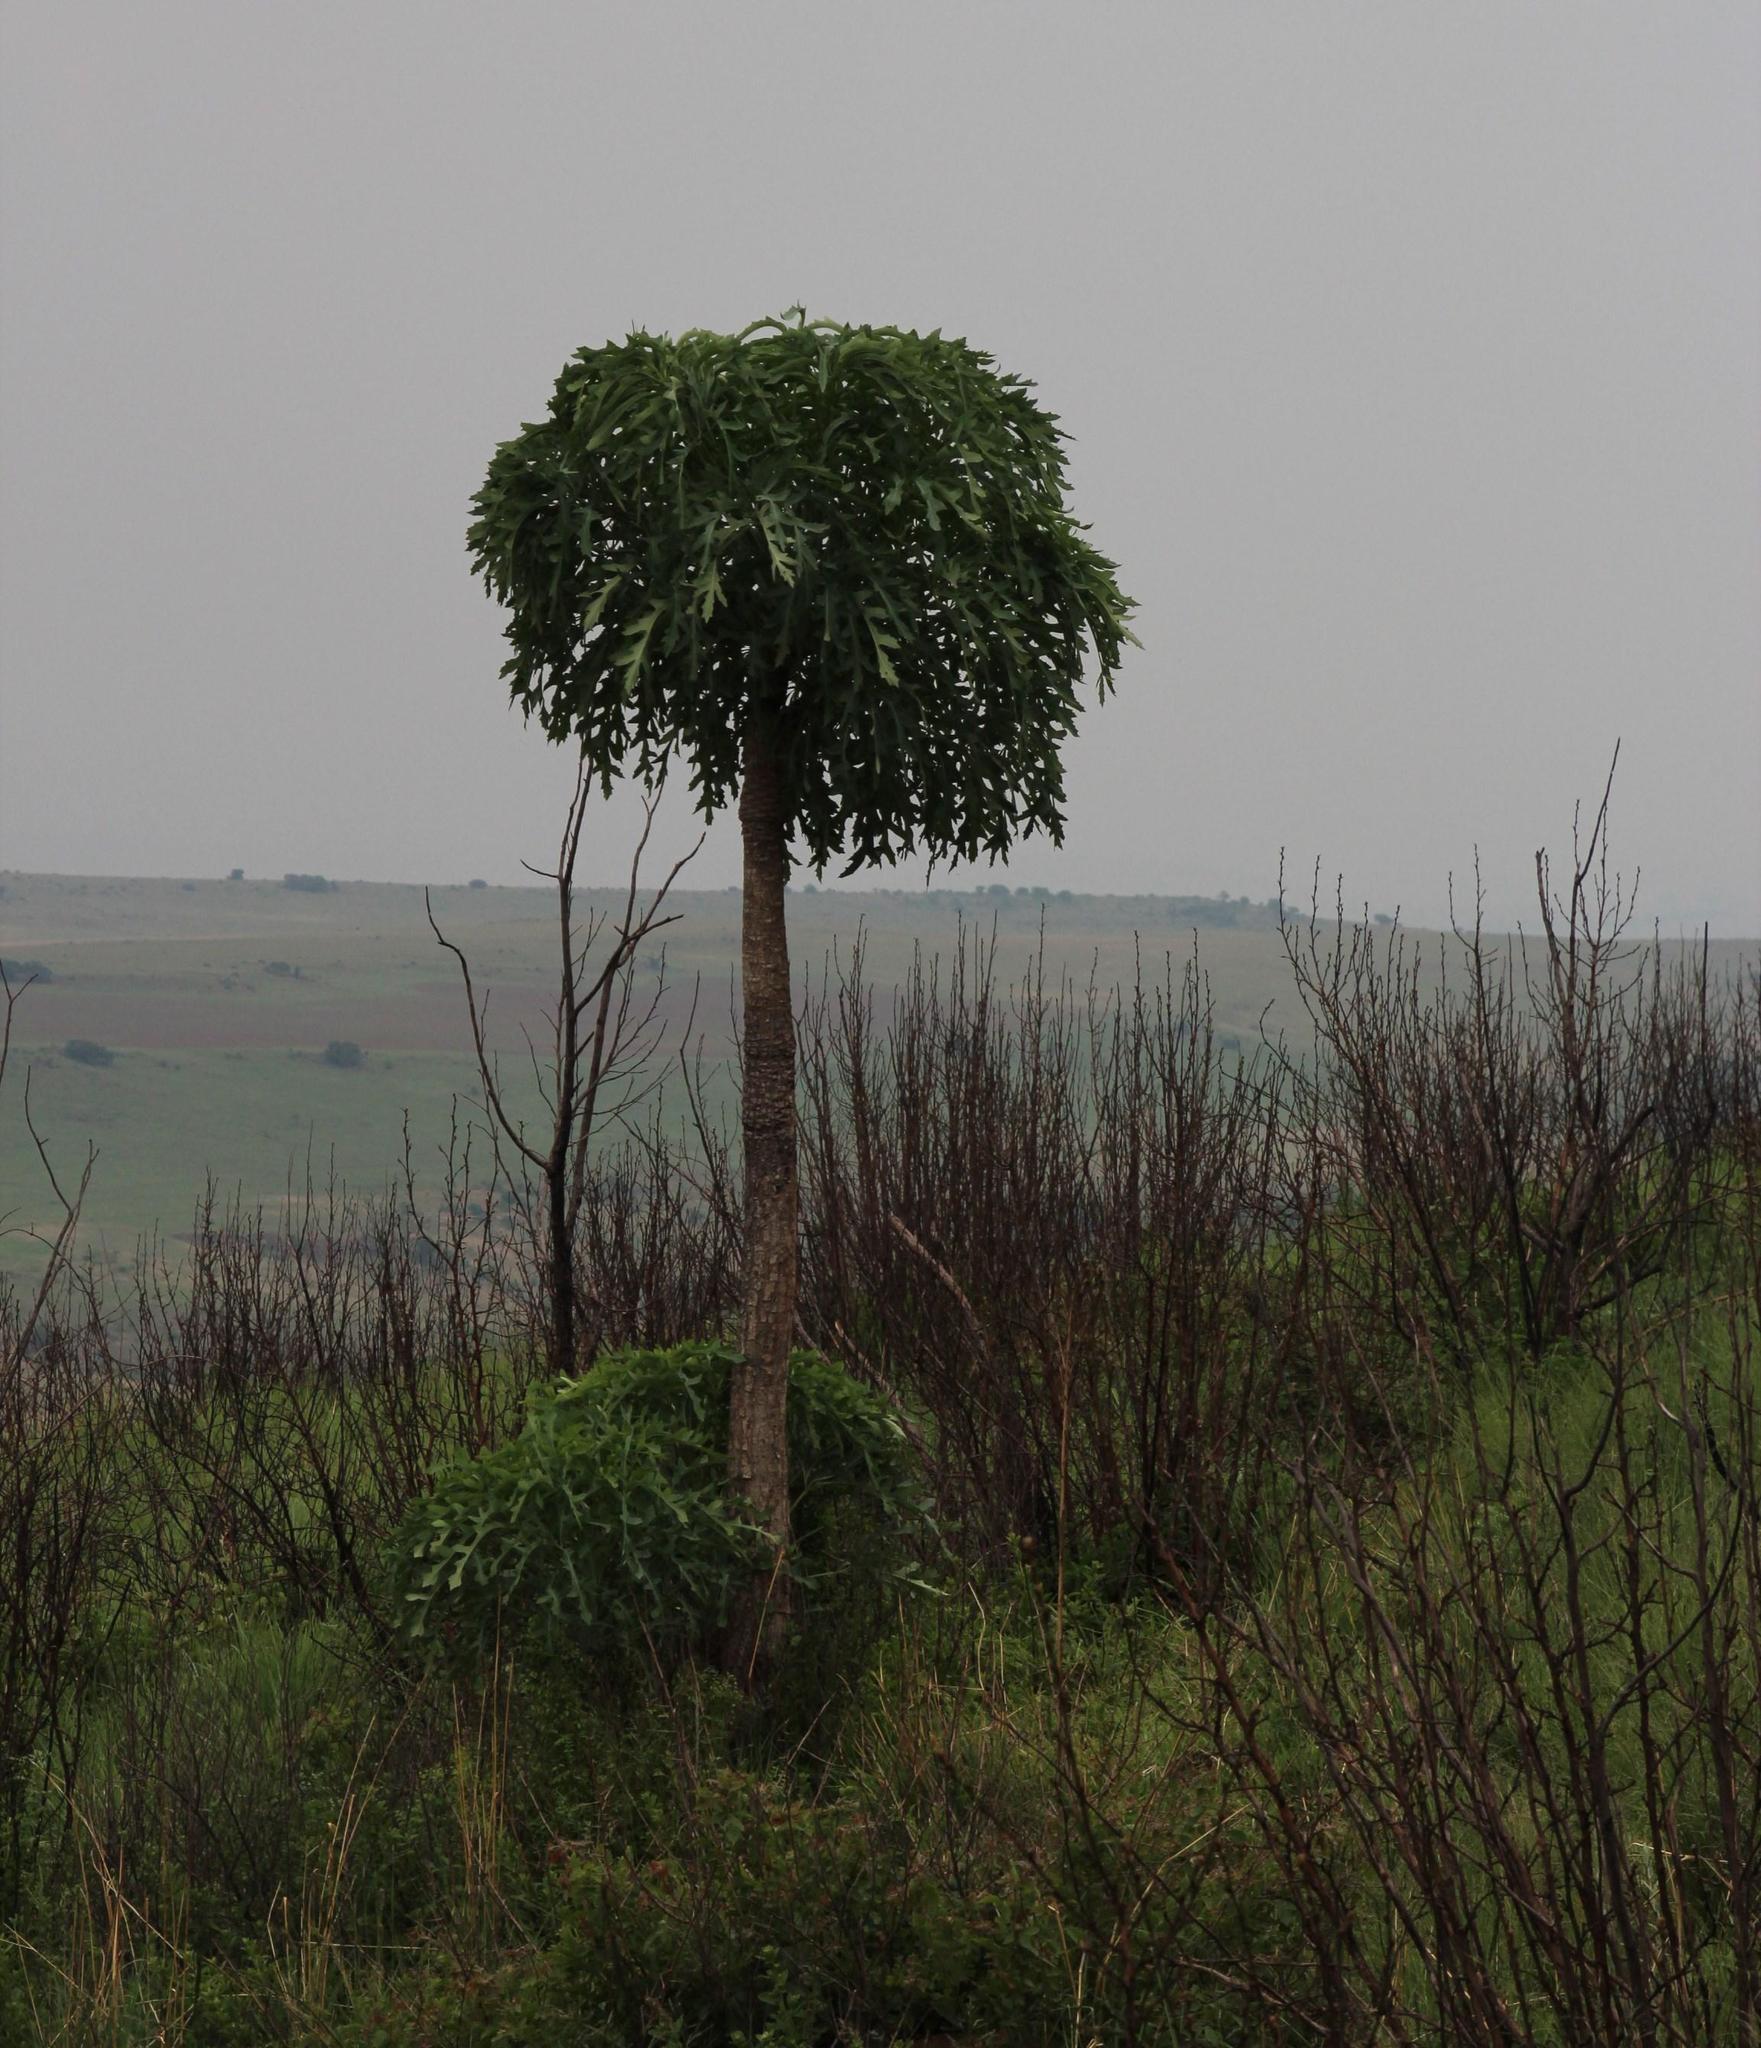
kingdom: Plantae
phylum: Tracheophyta
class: Magnoliopsida
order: Apiales
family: Araliaceae
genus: Cussonia
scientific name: Cussonia paniculata
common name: Cabbagetree
